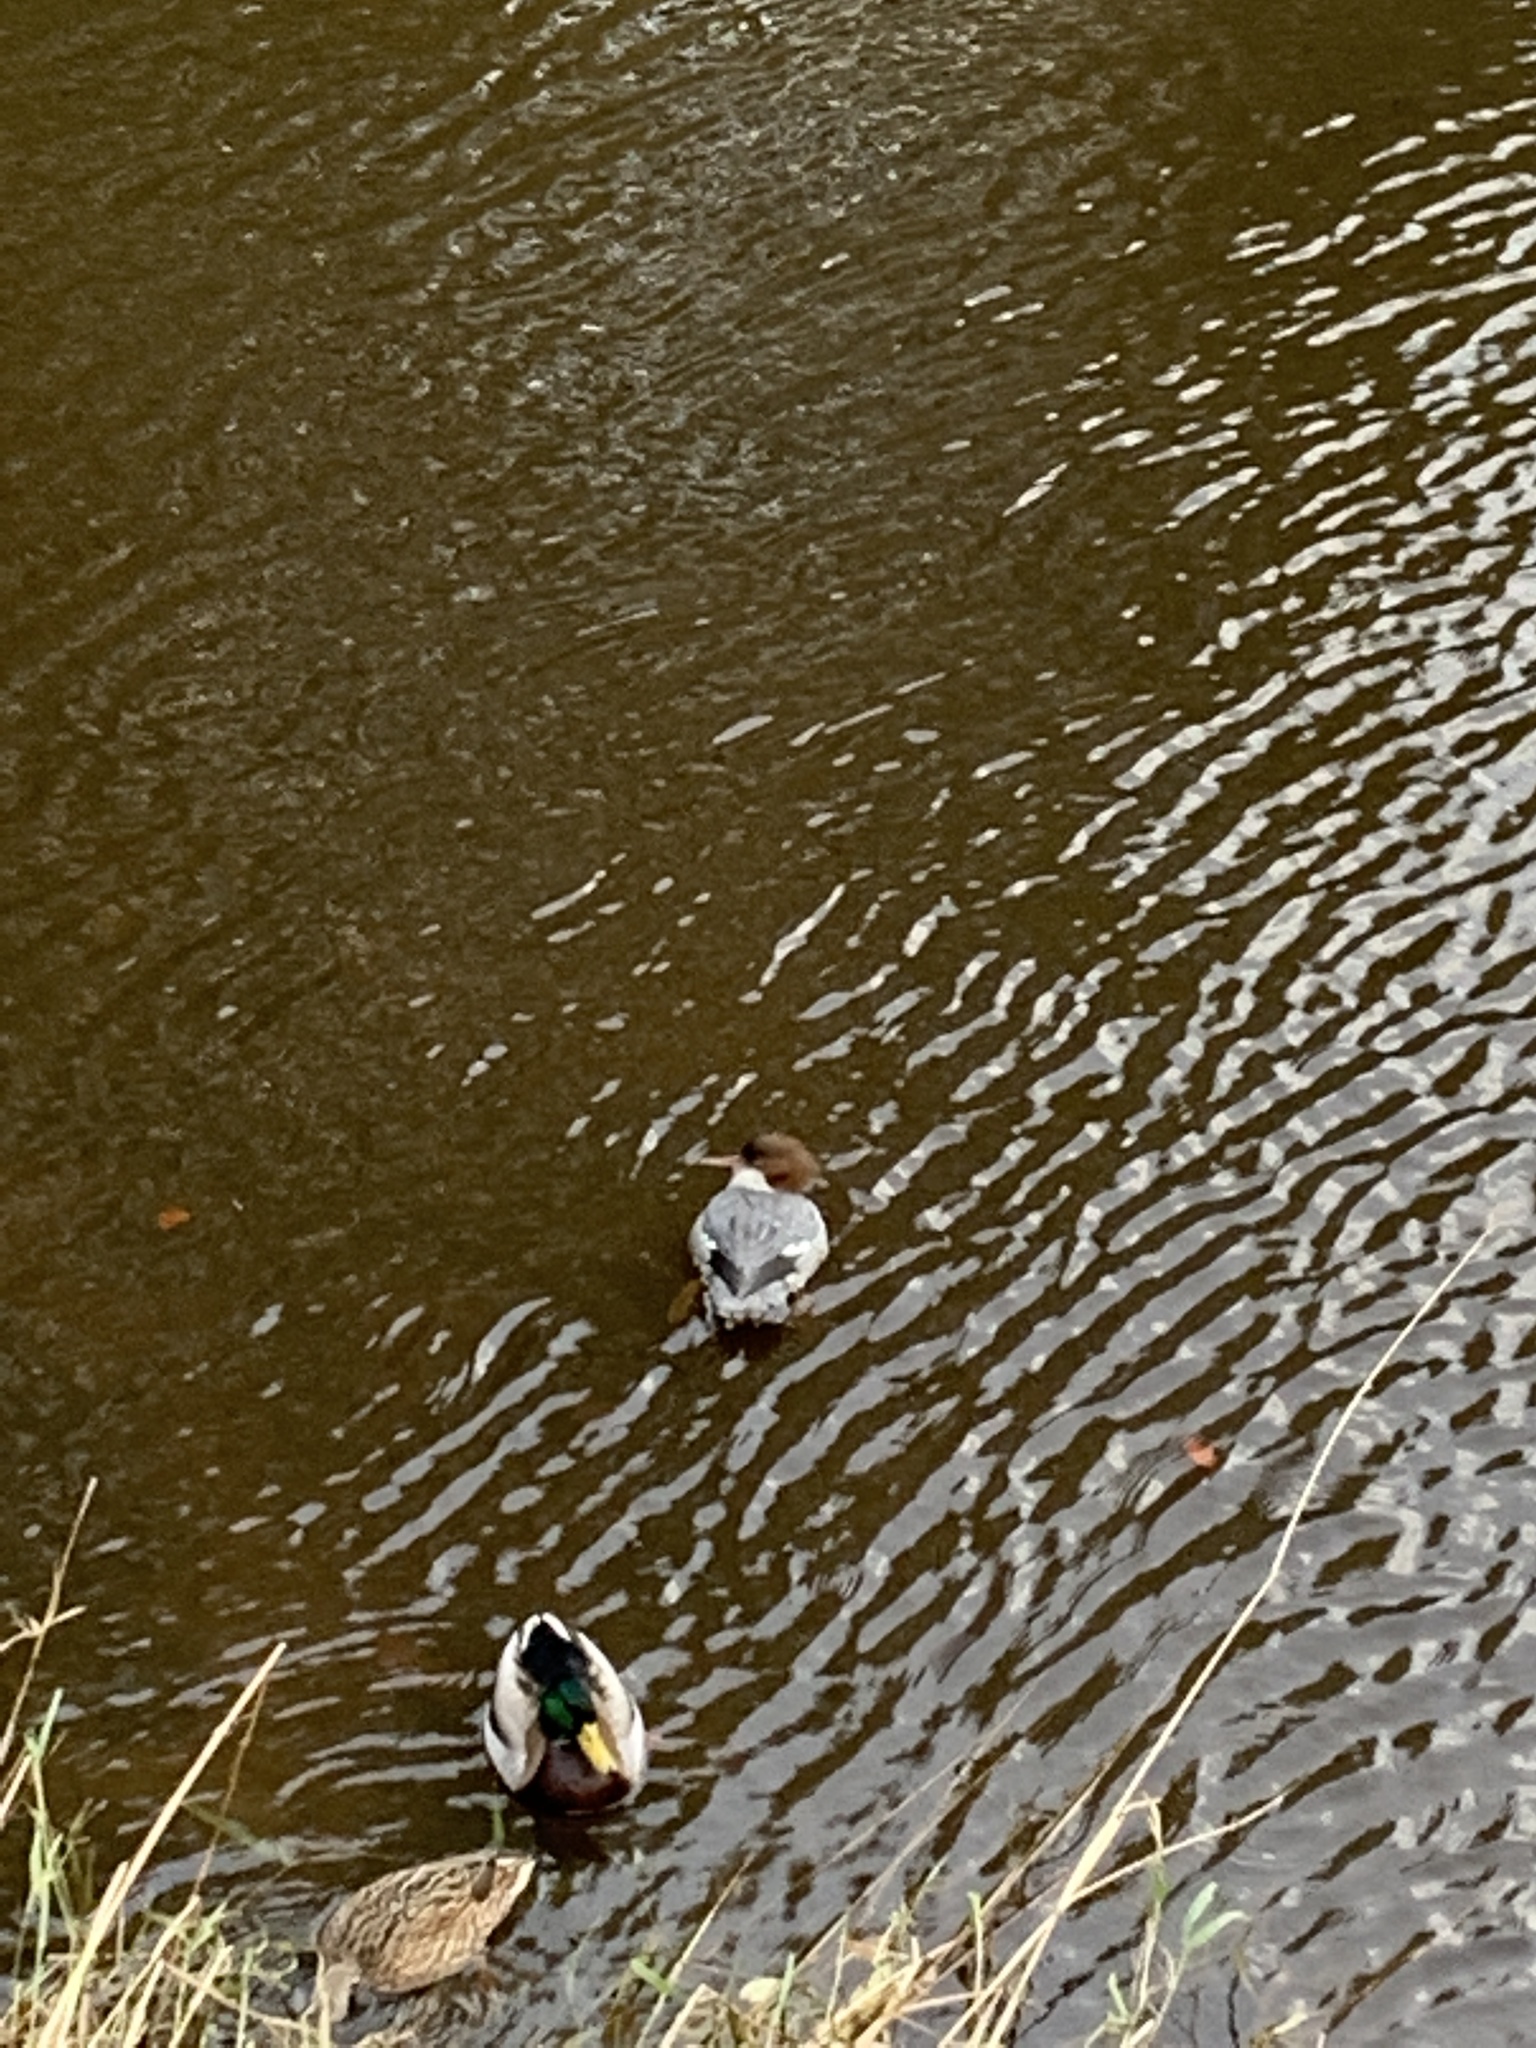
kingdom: Animalia
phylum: Chordata
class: Aves
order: Anseriformes
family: Anatidae
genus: Mergus
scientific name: Mergus merganser
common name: Common merganser
